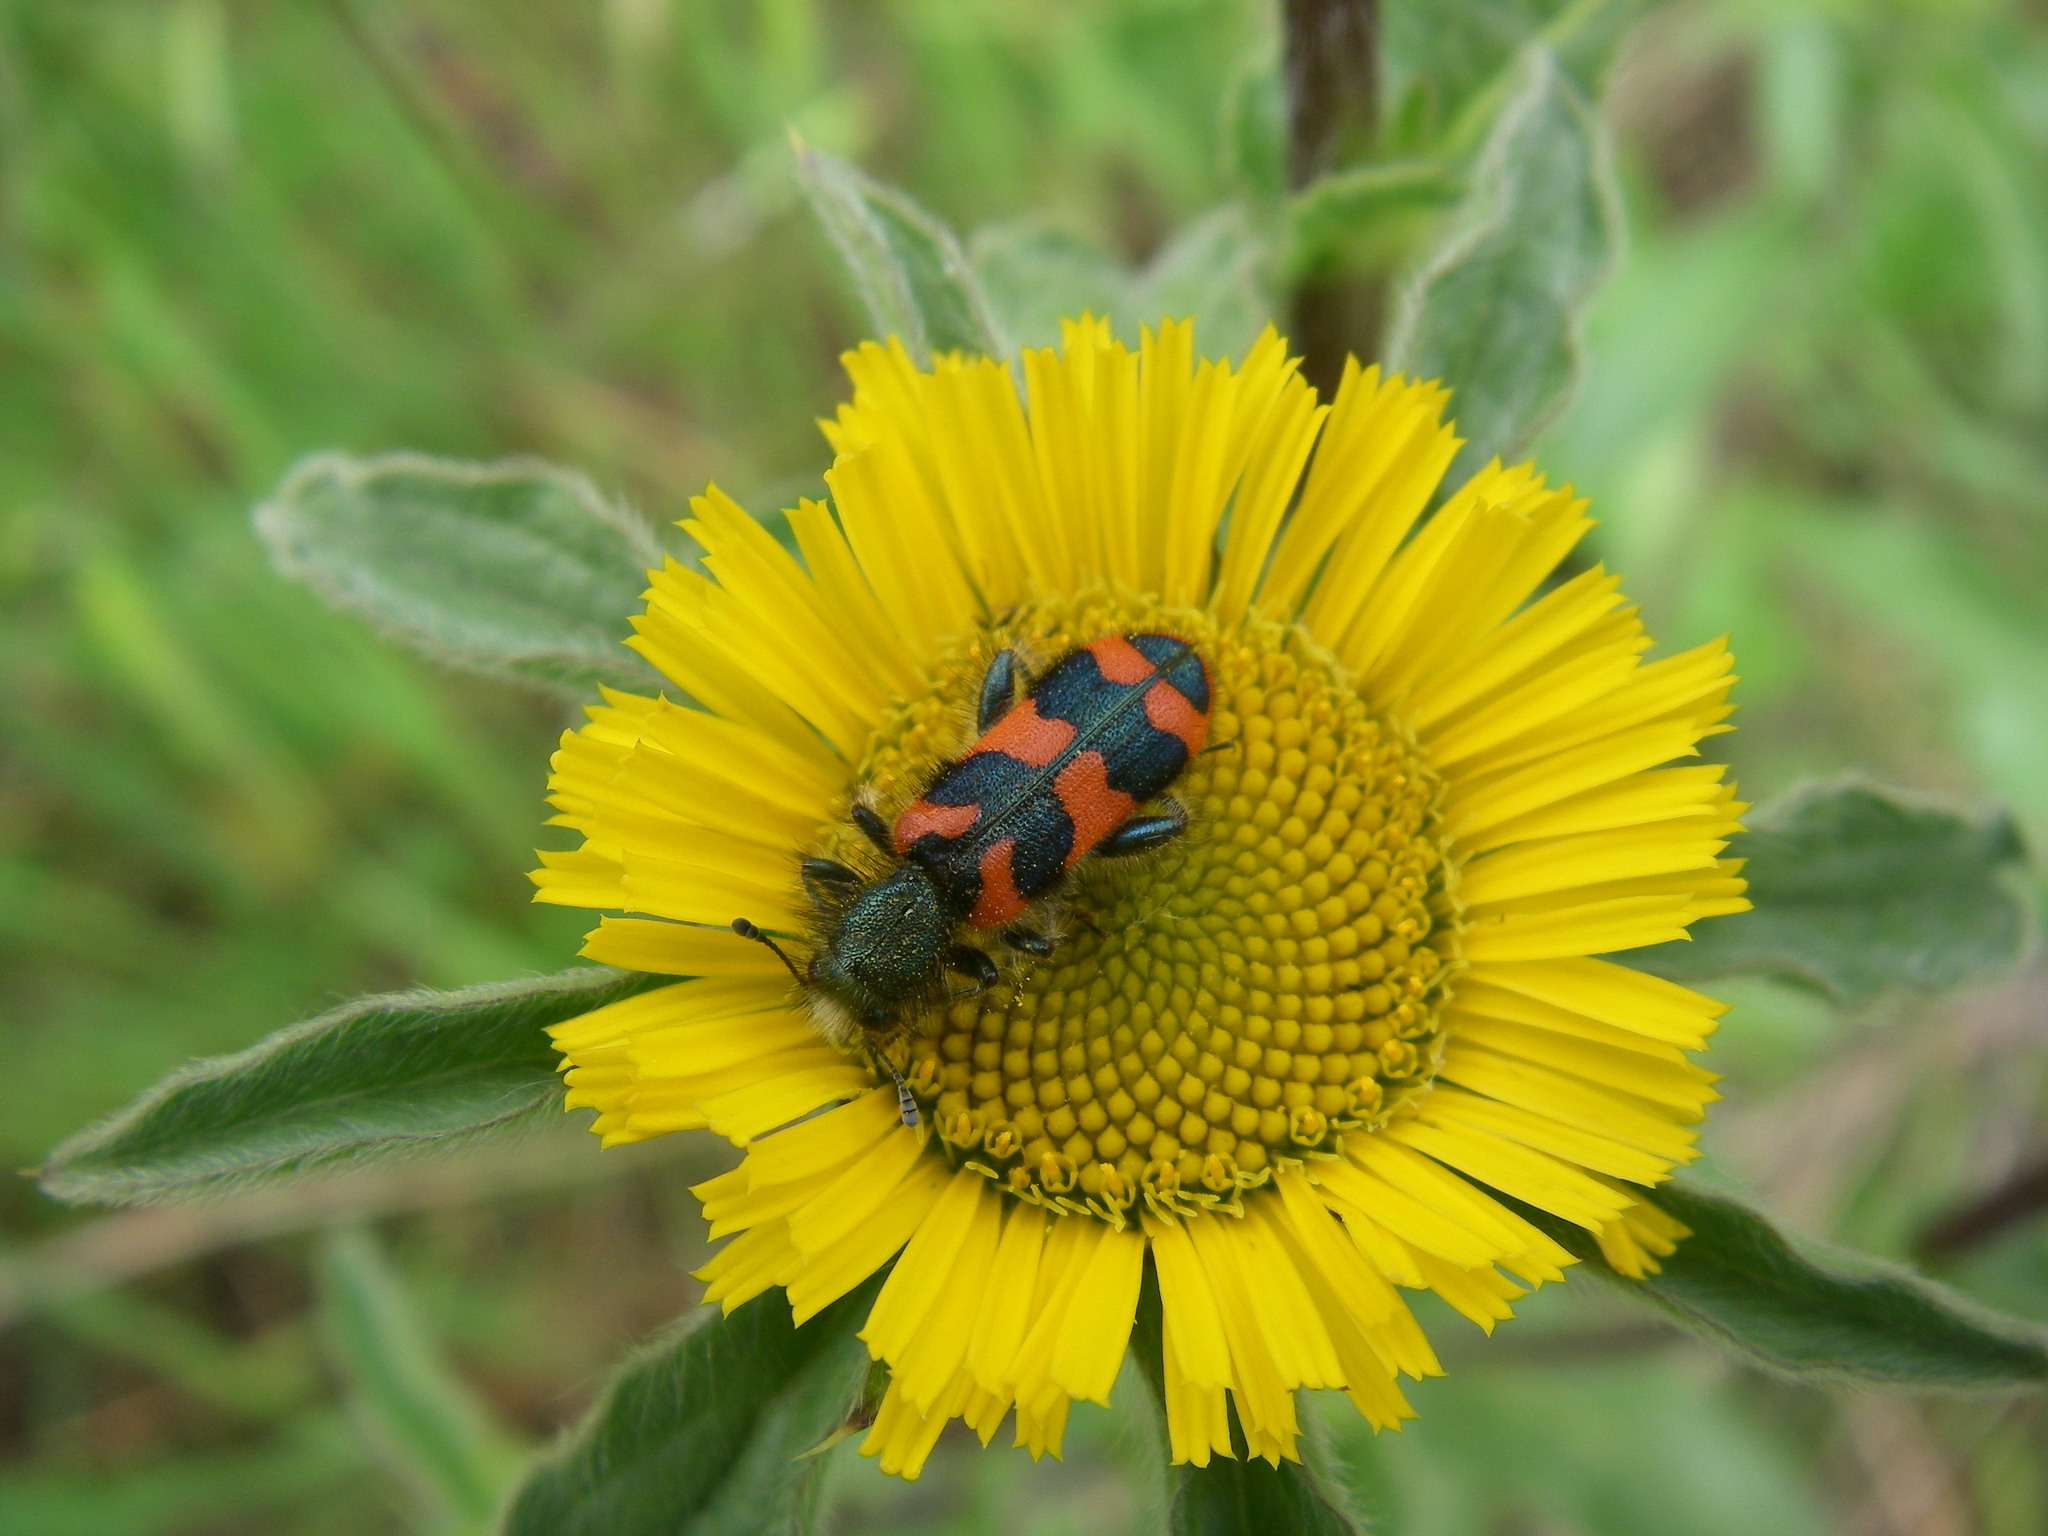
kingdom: Animalia
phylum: Arthropoda
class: Insecta
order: Coleoptera
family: Cleridae
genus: Trichodes
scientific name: Trichodes alvearius
